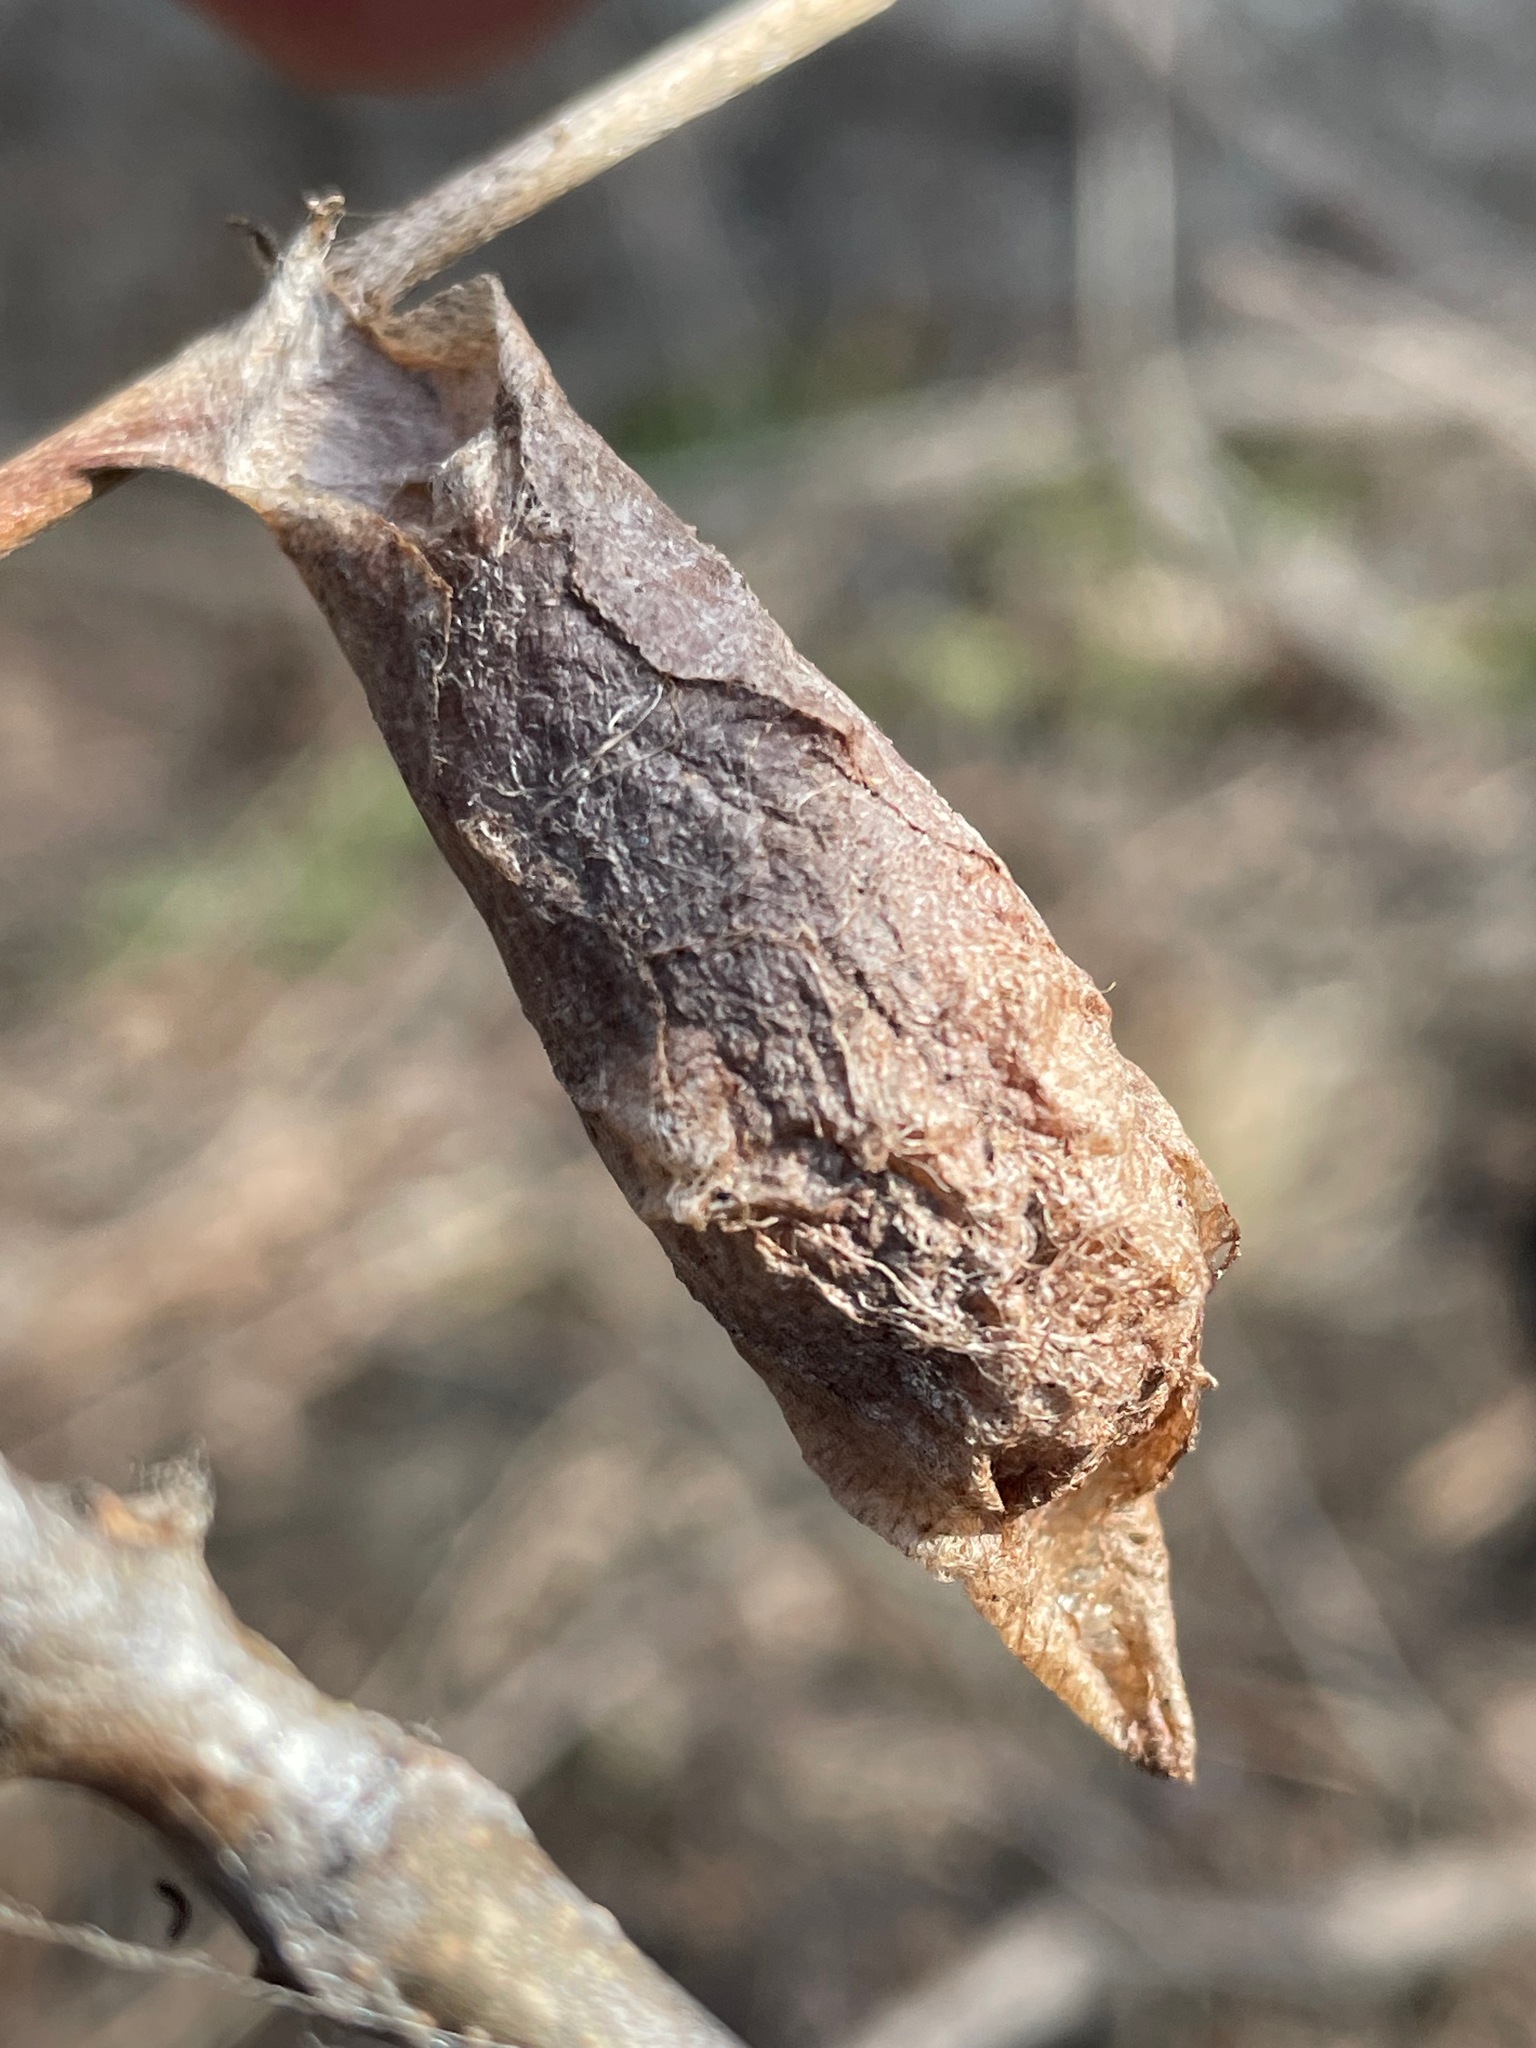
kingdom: Animalia
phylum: Arthropoda
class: Insecta
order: Lepidoptera
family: Saturniidae
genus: Callosamia
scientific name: Callosamia promethea
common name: Promethea silkmoth
